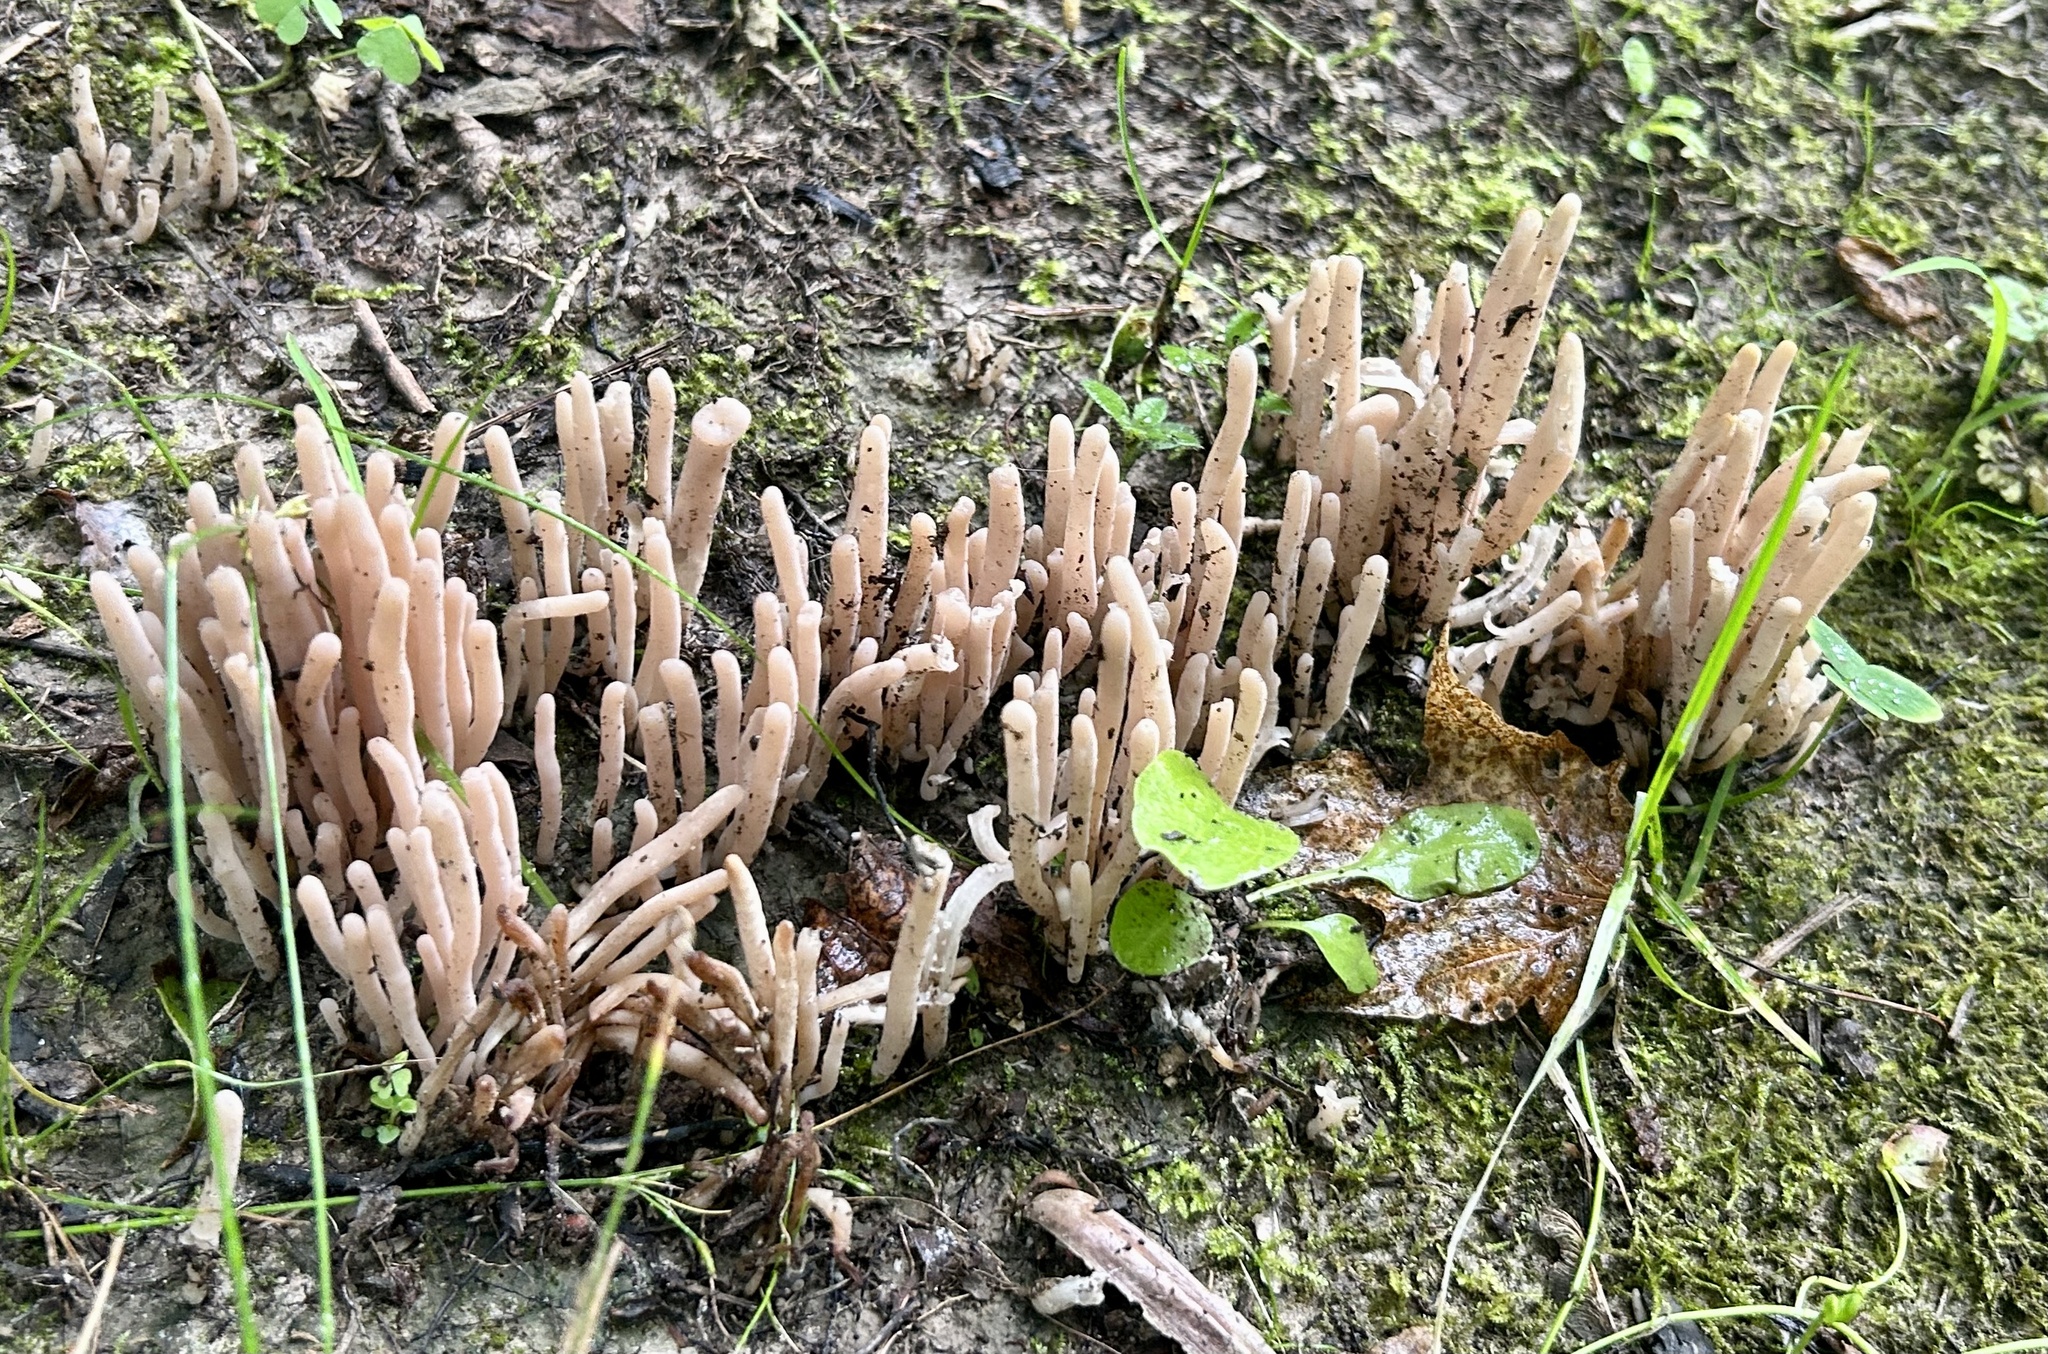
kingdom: Fungi
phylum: Basidiomycota
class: Agaricomycetes
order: Agaricales
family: Clavariaceae
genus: Clavaria
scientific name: Clavaria fumosa
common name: Smoky spindles
